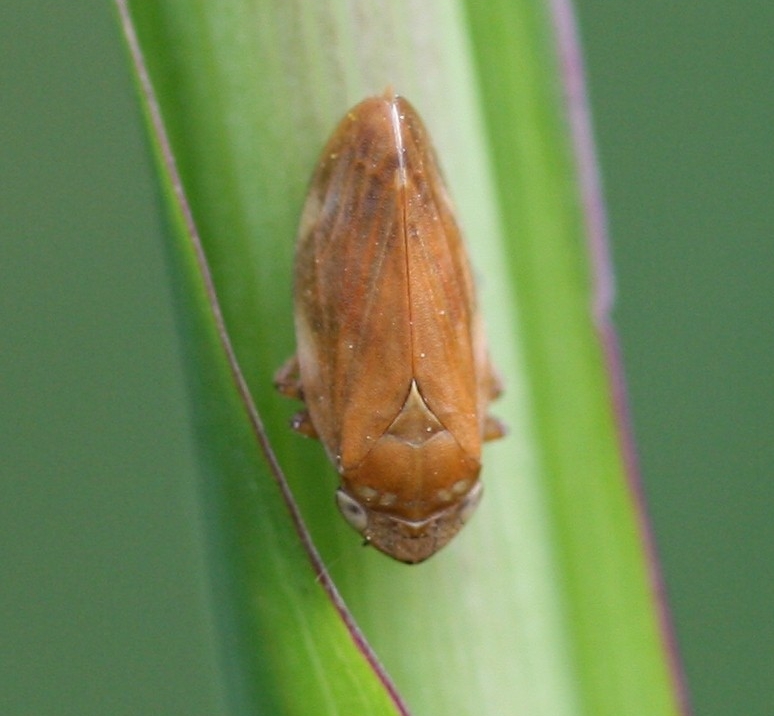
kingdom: Animalia
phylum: Arthropoda
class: Insecta
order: Hemiptera
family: Aphrophoridae
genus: Philaenus
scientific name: Philaenus spumarius
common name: Meadow spittlebug
